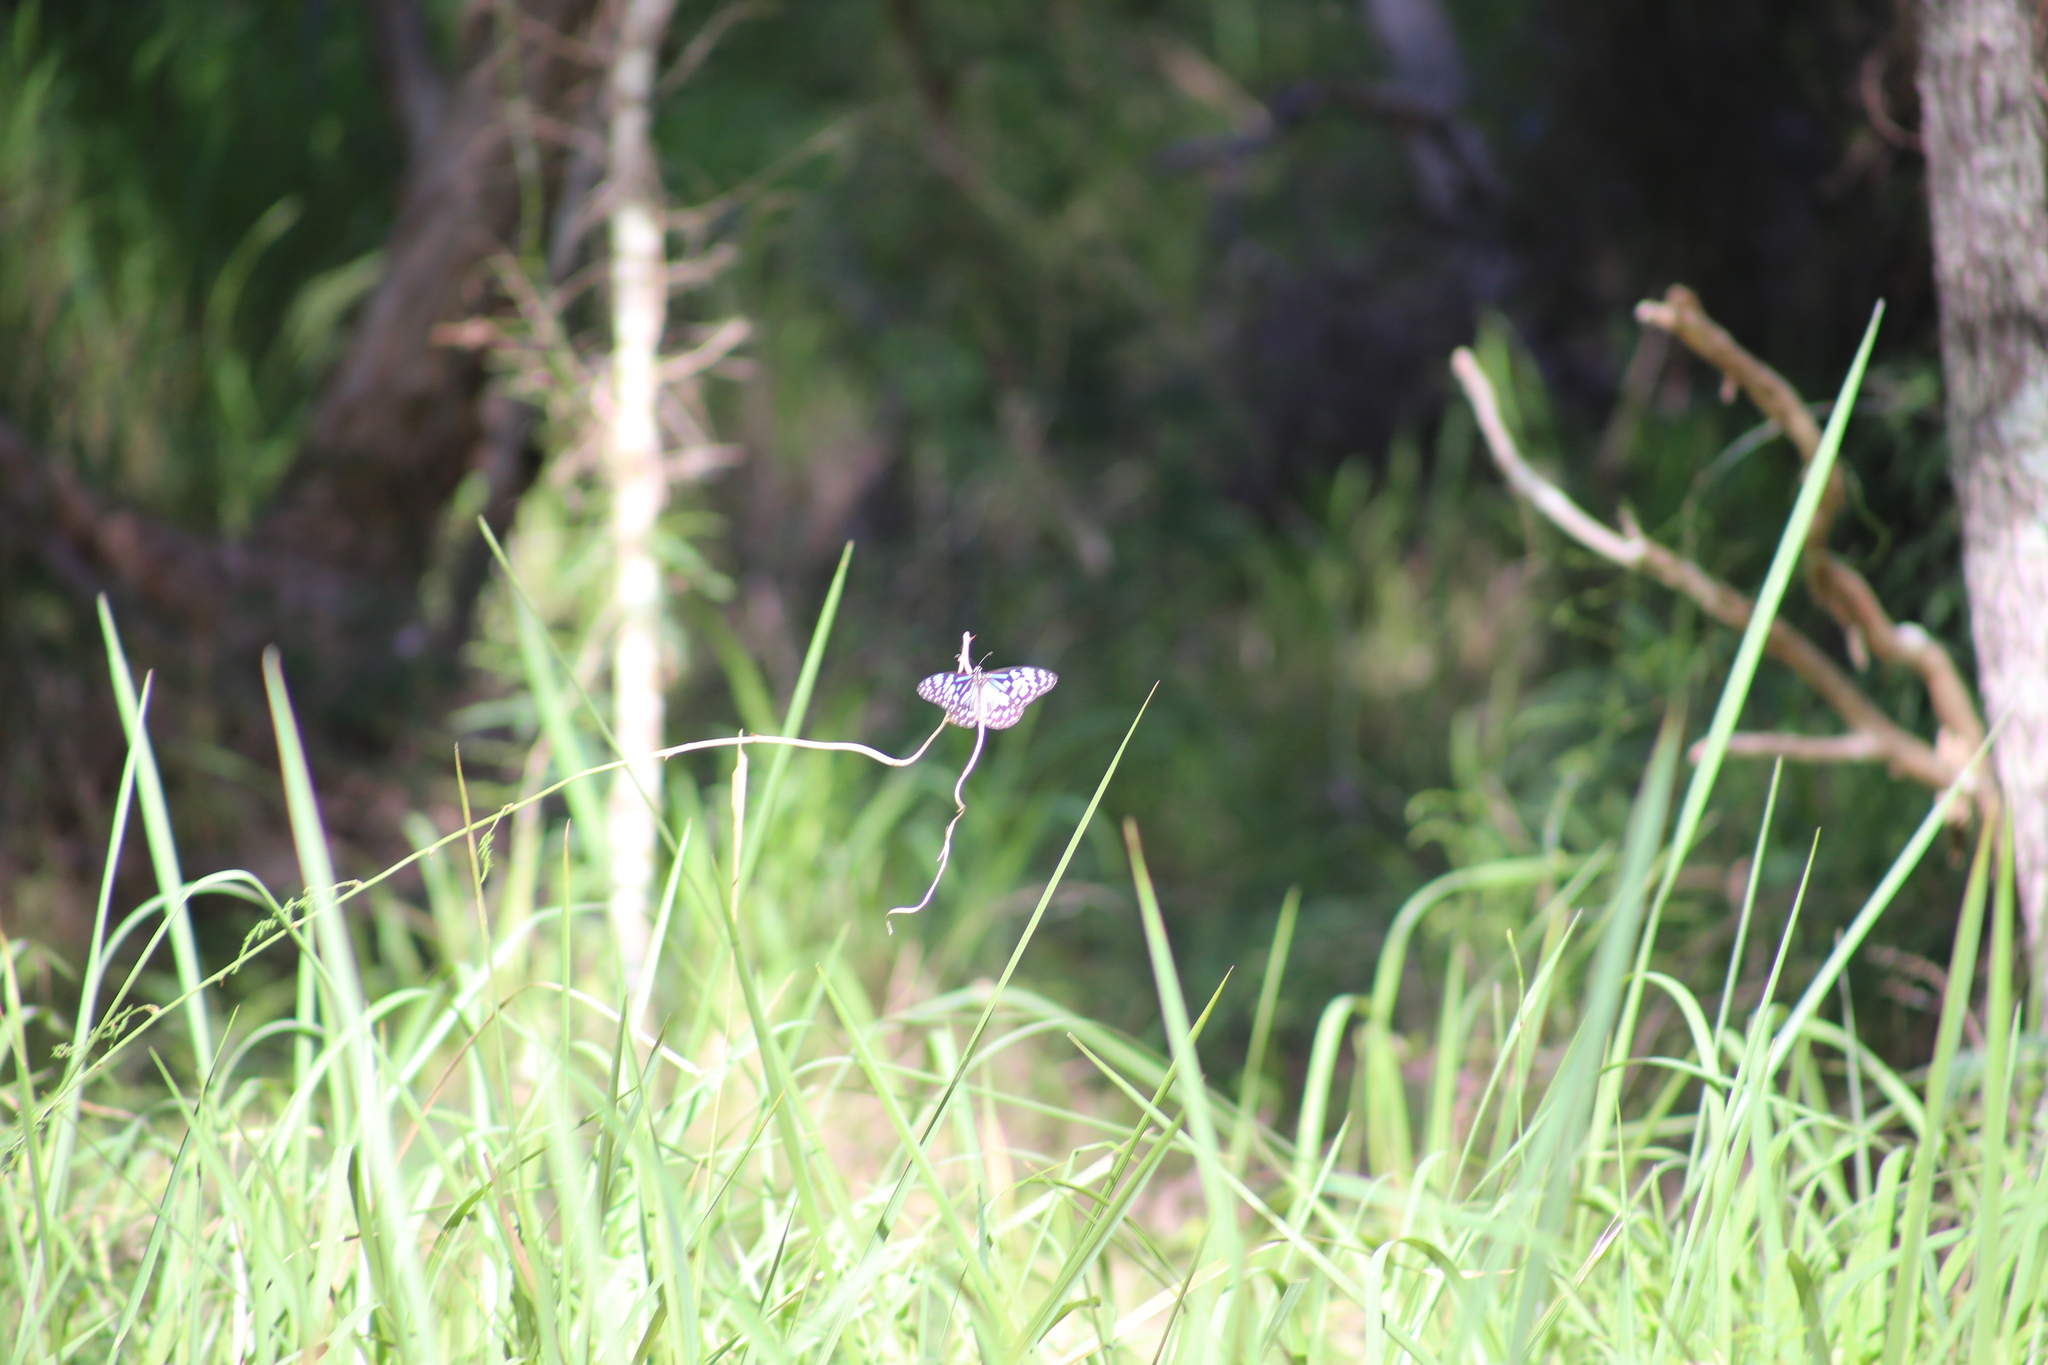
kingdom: Animalia
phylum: Arthropoda
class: Insecta
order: Lepidoptera
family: Nymphalidae
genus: Tirumala
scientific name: Tirumala hamata
